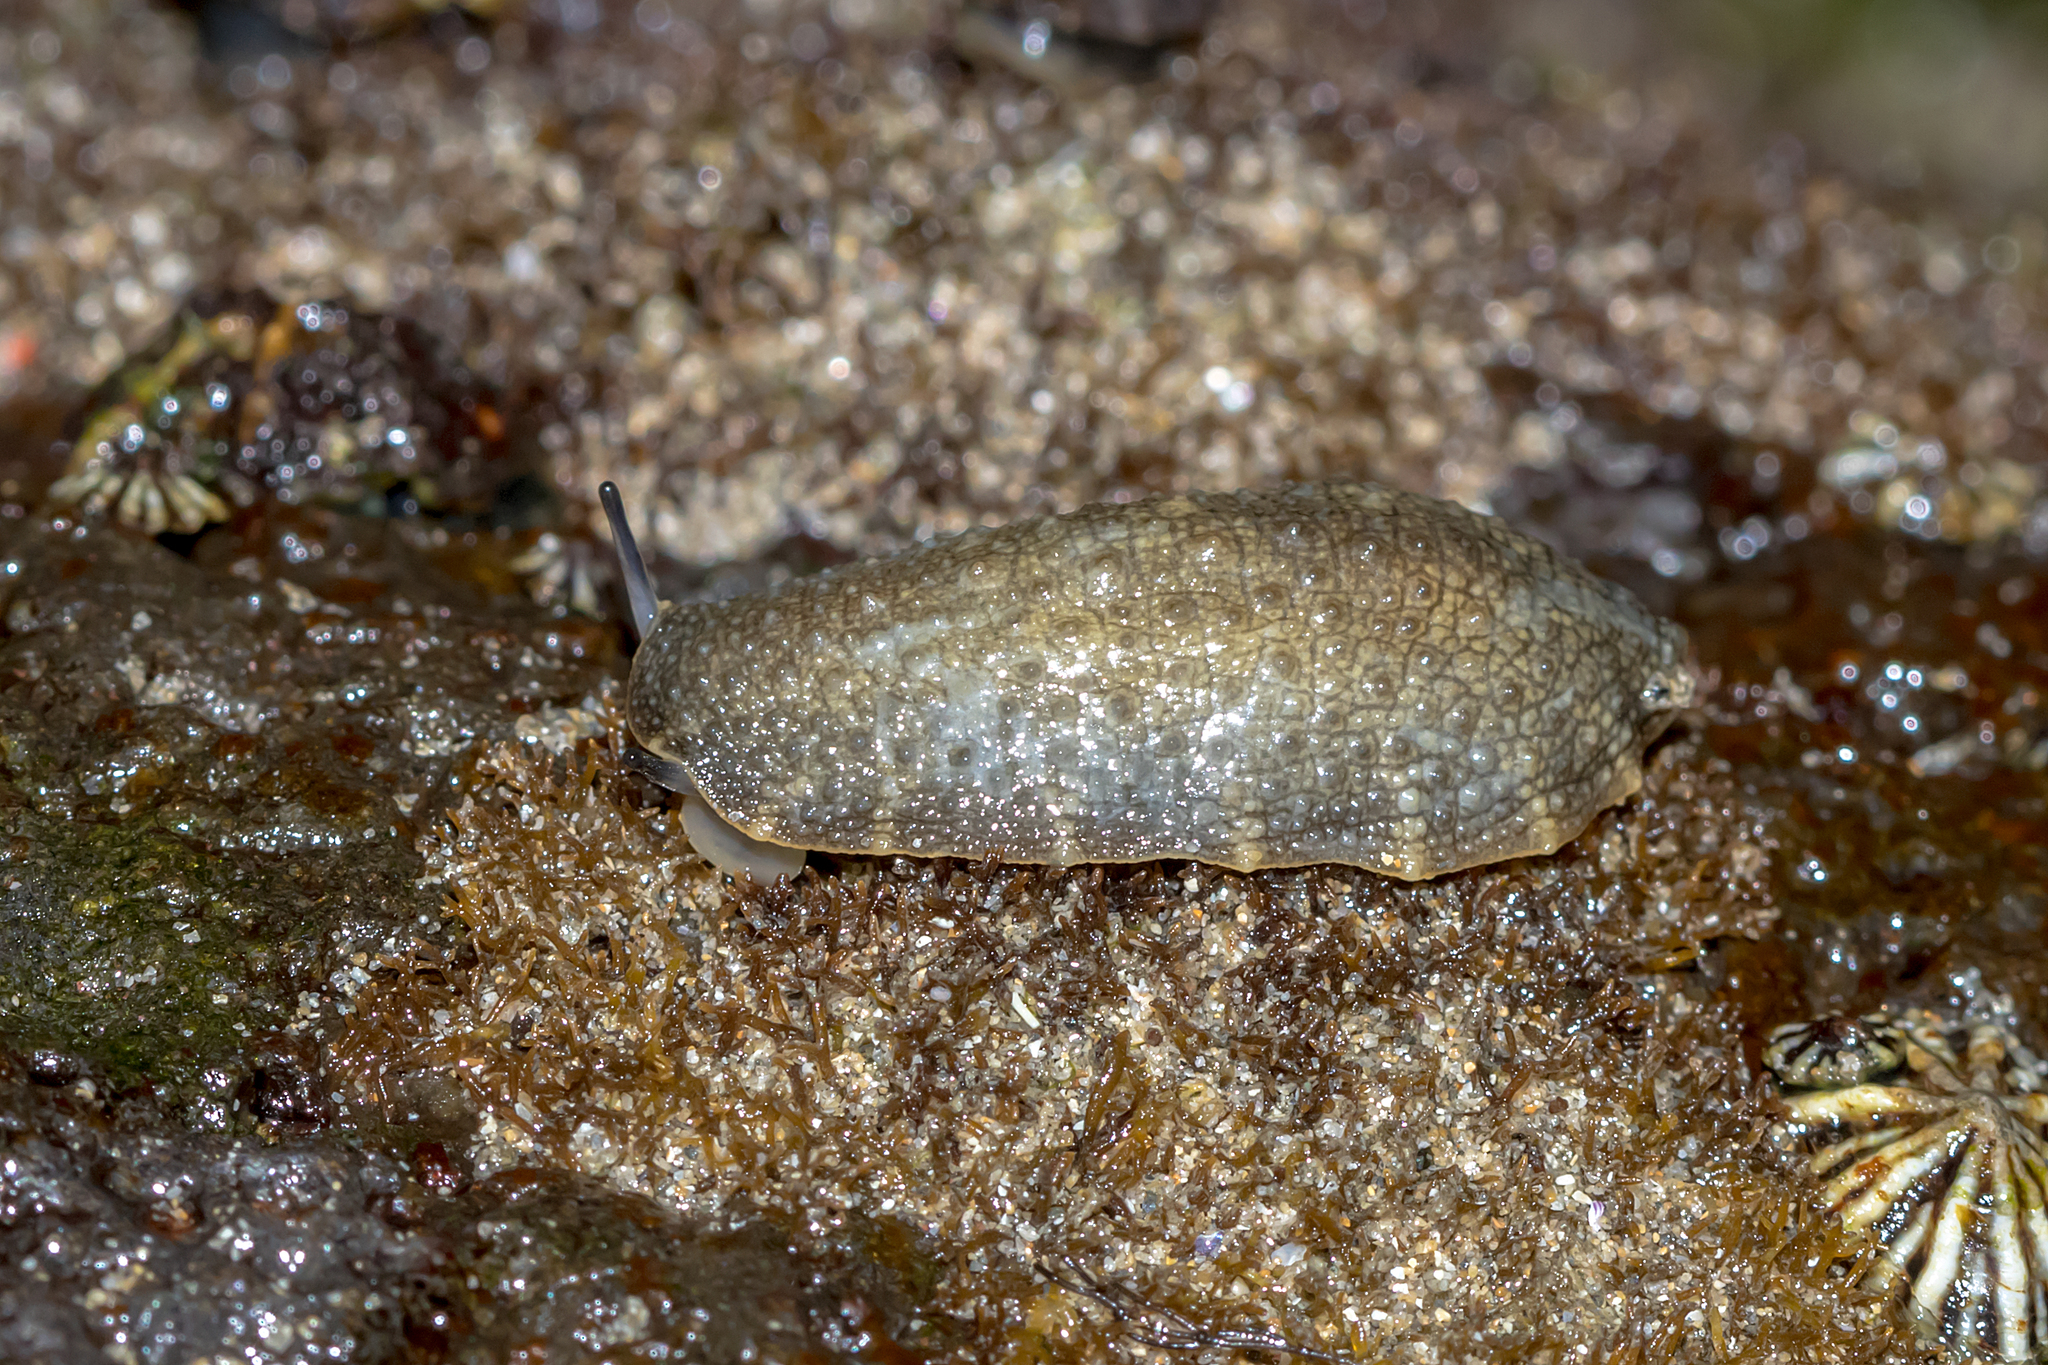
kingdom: Animalia
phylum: Mollusca
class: Gastropoda
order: Systellommatophora
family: Onchidiidae
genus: Onchidella
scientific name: Onchidella nigricans
